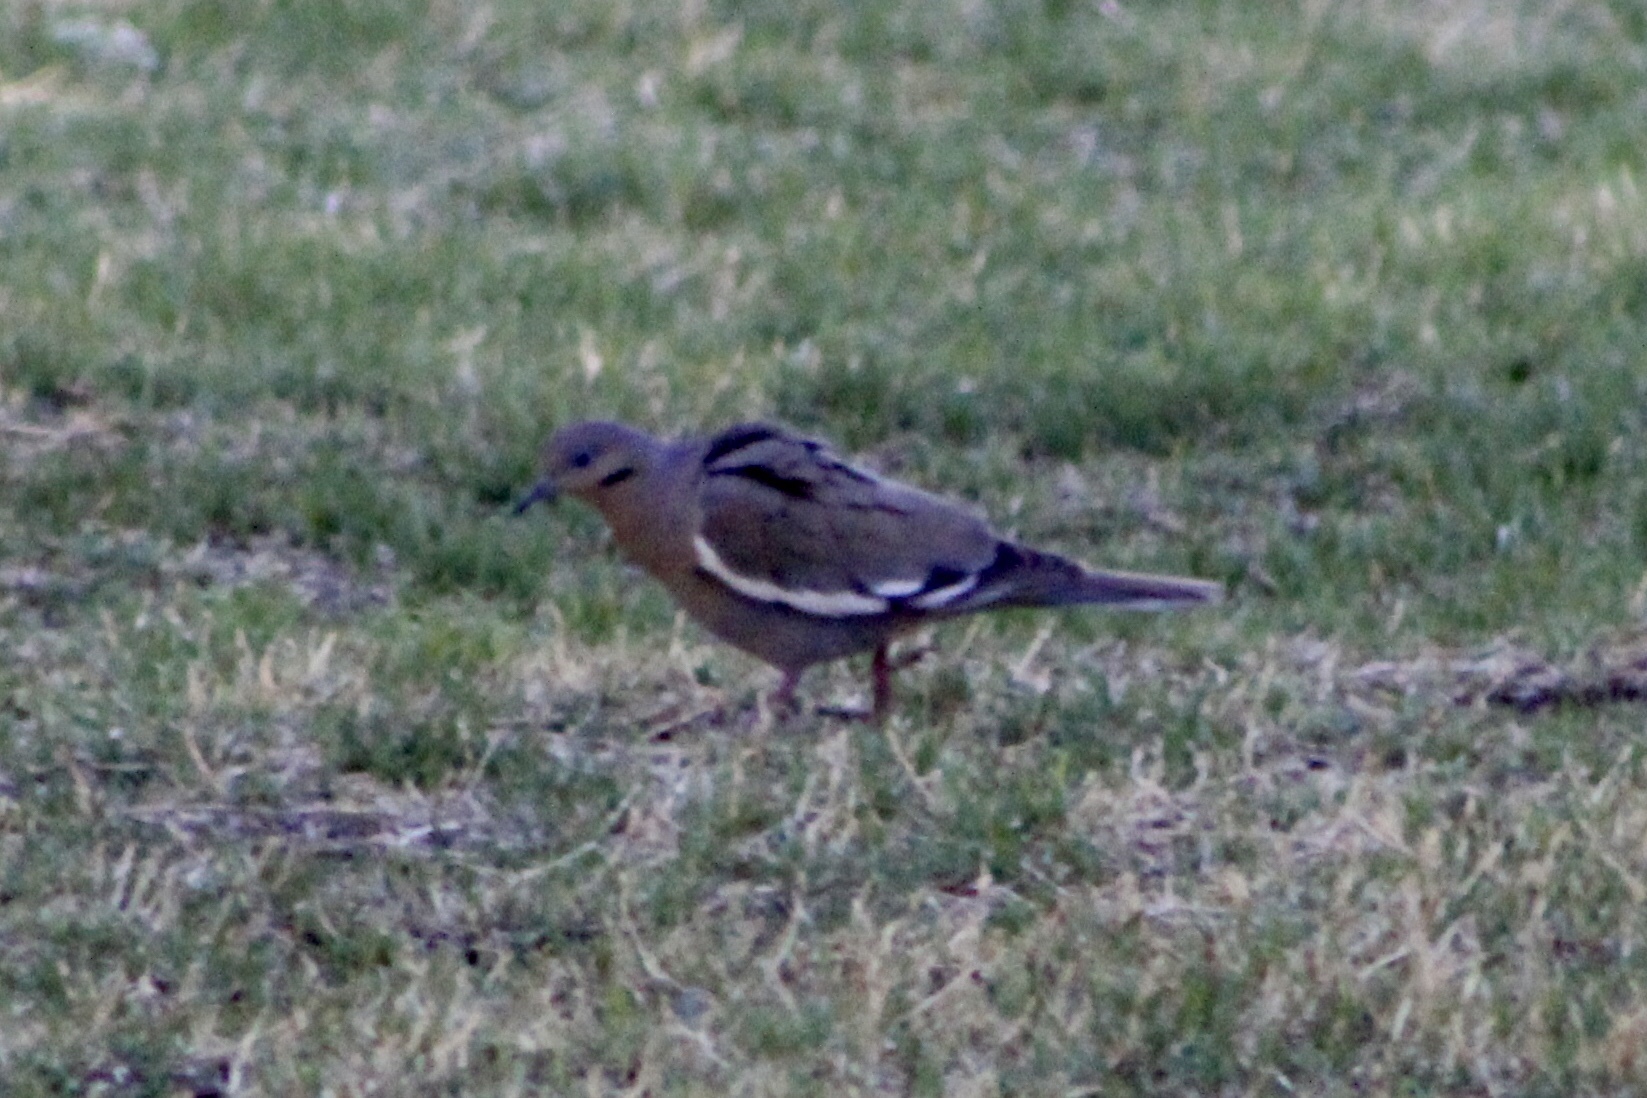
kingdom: Animalia
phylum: Chordata
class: Aves
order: Columbiformes
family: Columbidae
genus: Zenaida
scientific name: Zenaida asiatica
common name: White-winged dove
